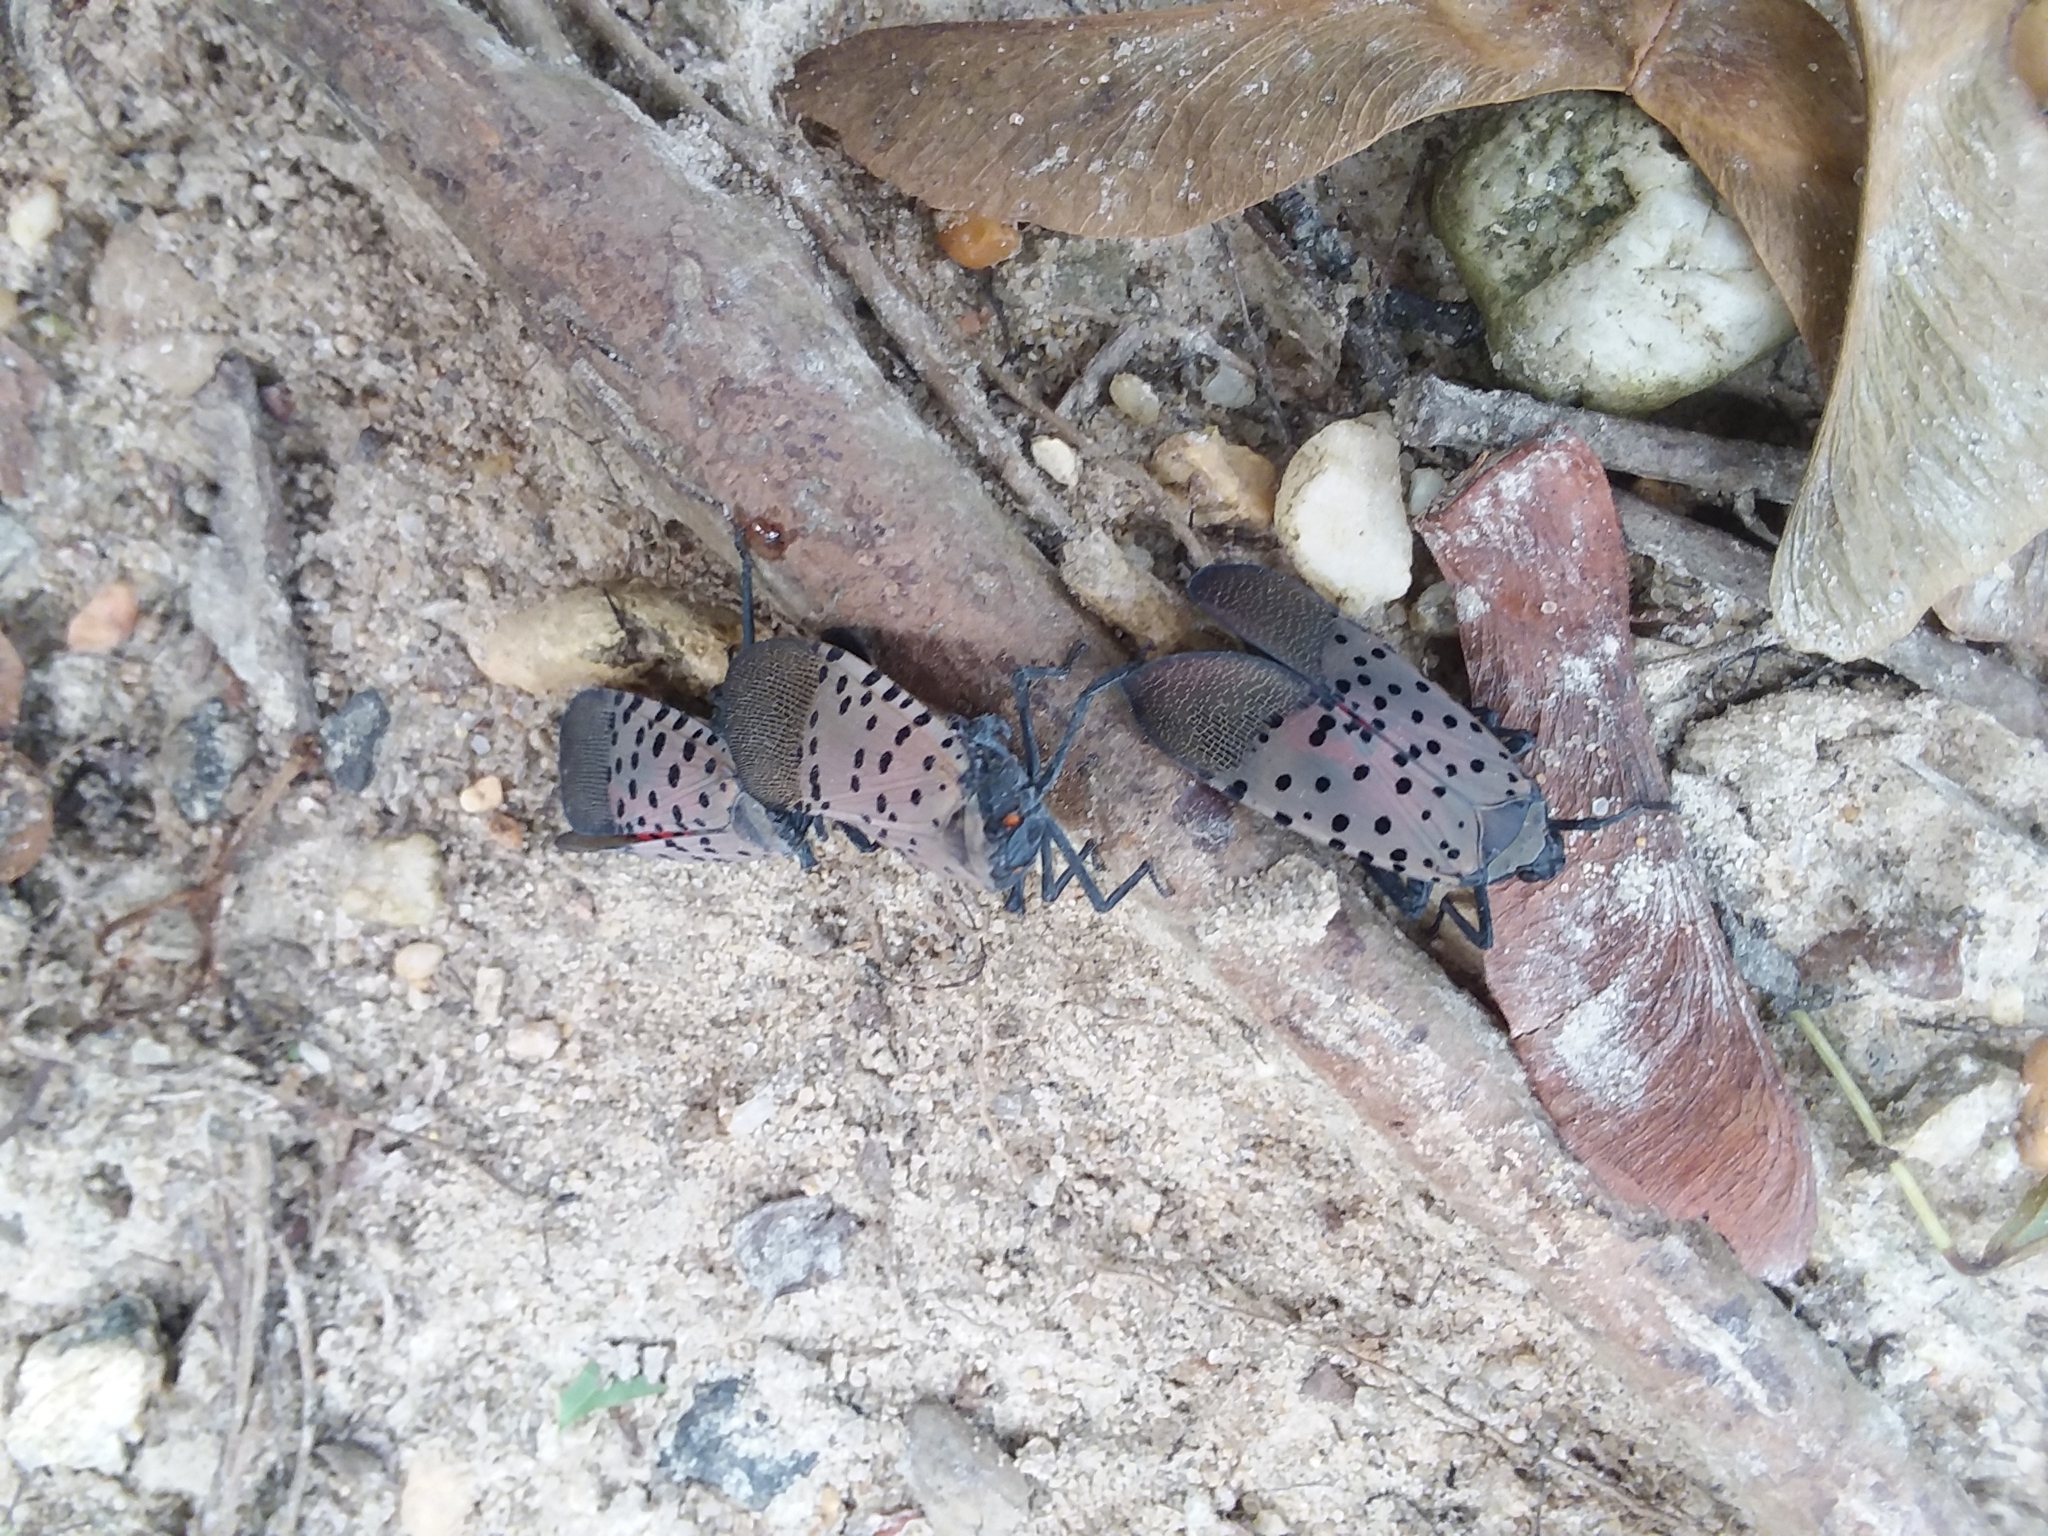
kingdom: Animalia
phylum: Arthropoda
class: Insecta
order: Hemiptera
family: Fulgoridae
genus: Lycorma
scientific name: Lycorma delicatula
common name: Spotted lanternfly
